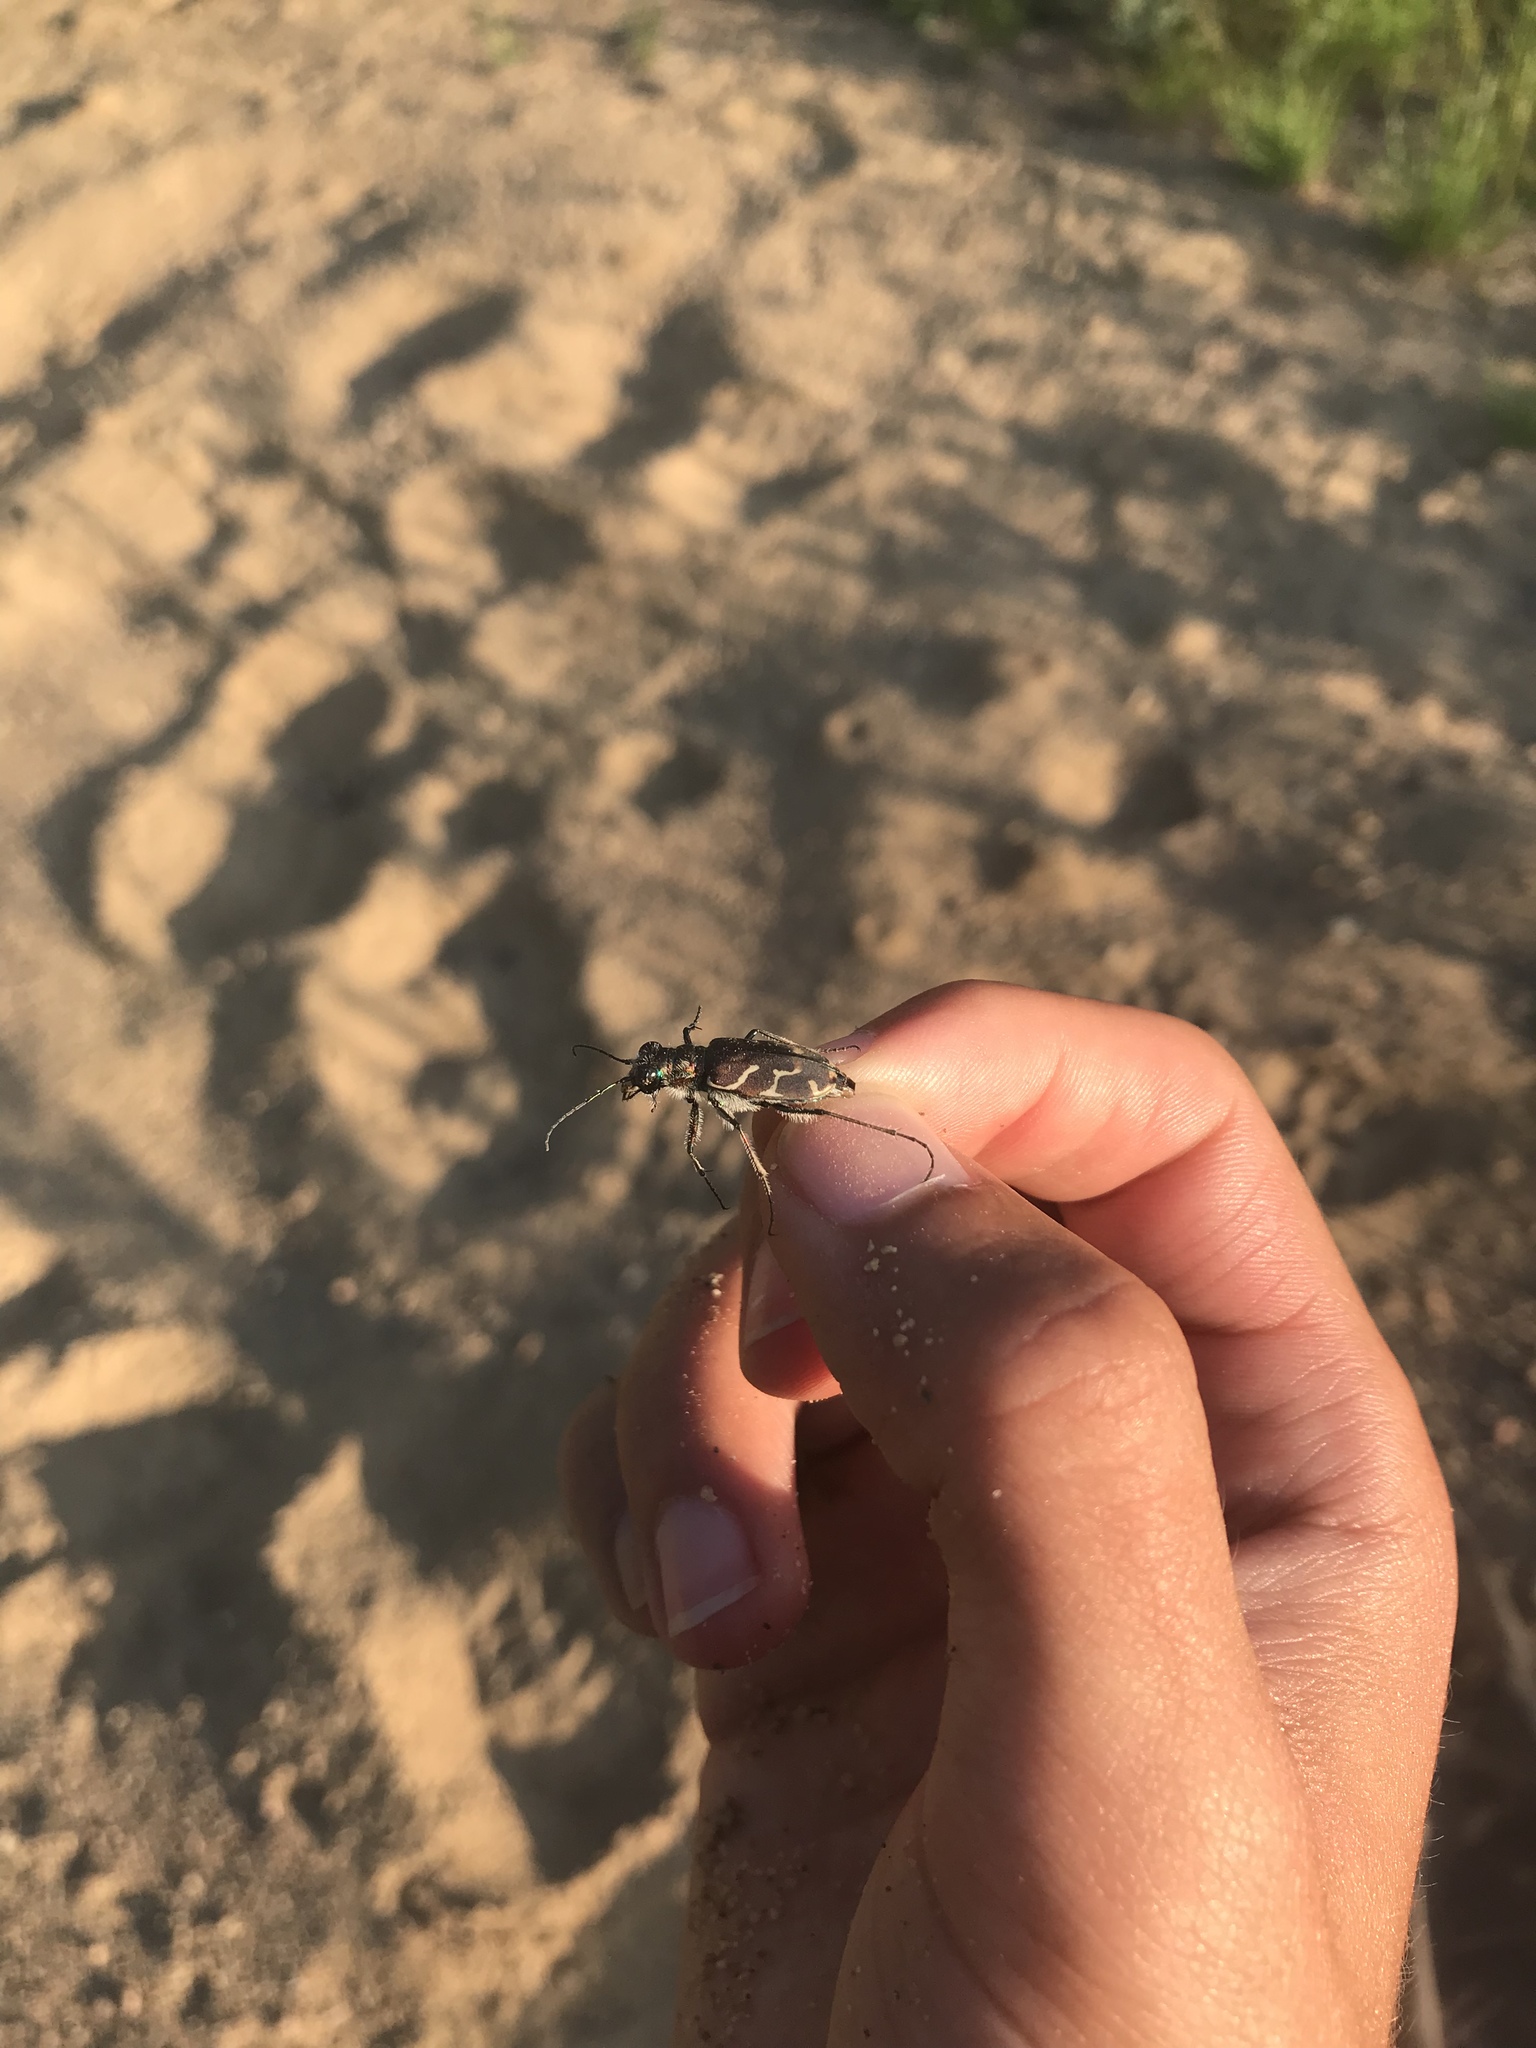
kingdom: Animalia
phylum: Arthropoda
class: Insecta
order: Coleoptera
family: Carabidae
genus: Cicindela
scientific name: Cicindela tranquebarica
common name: Oblique-lined tiger beetle
